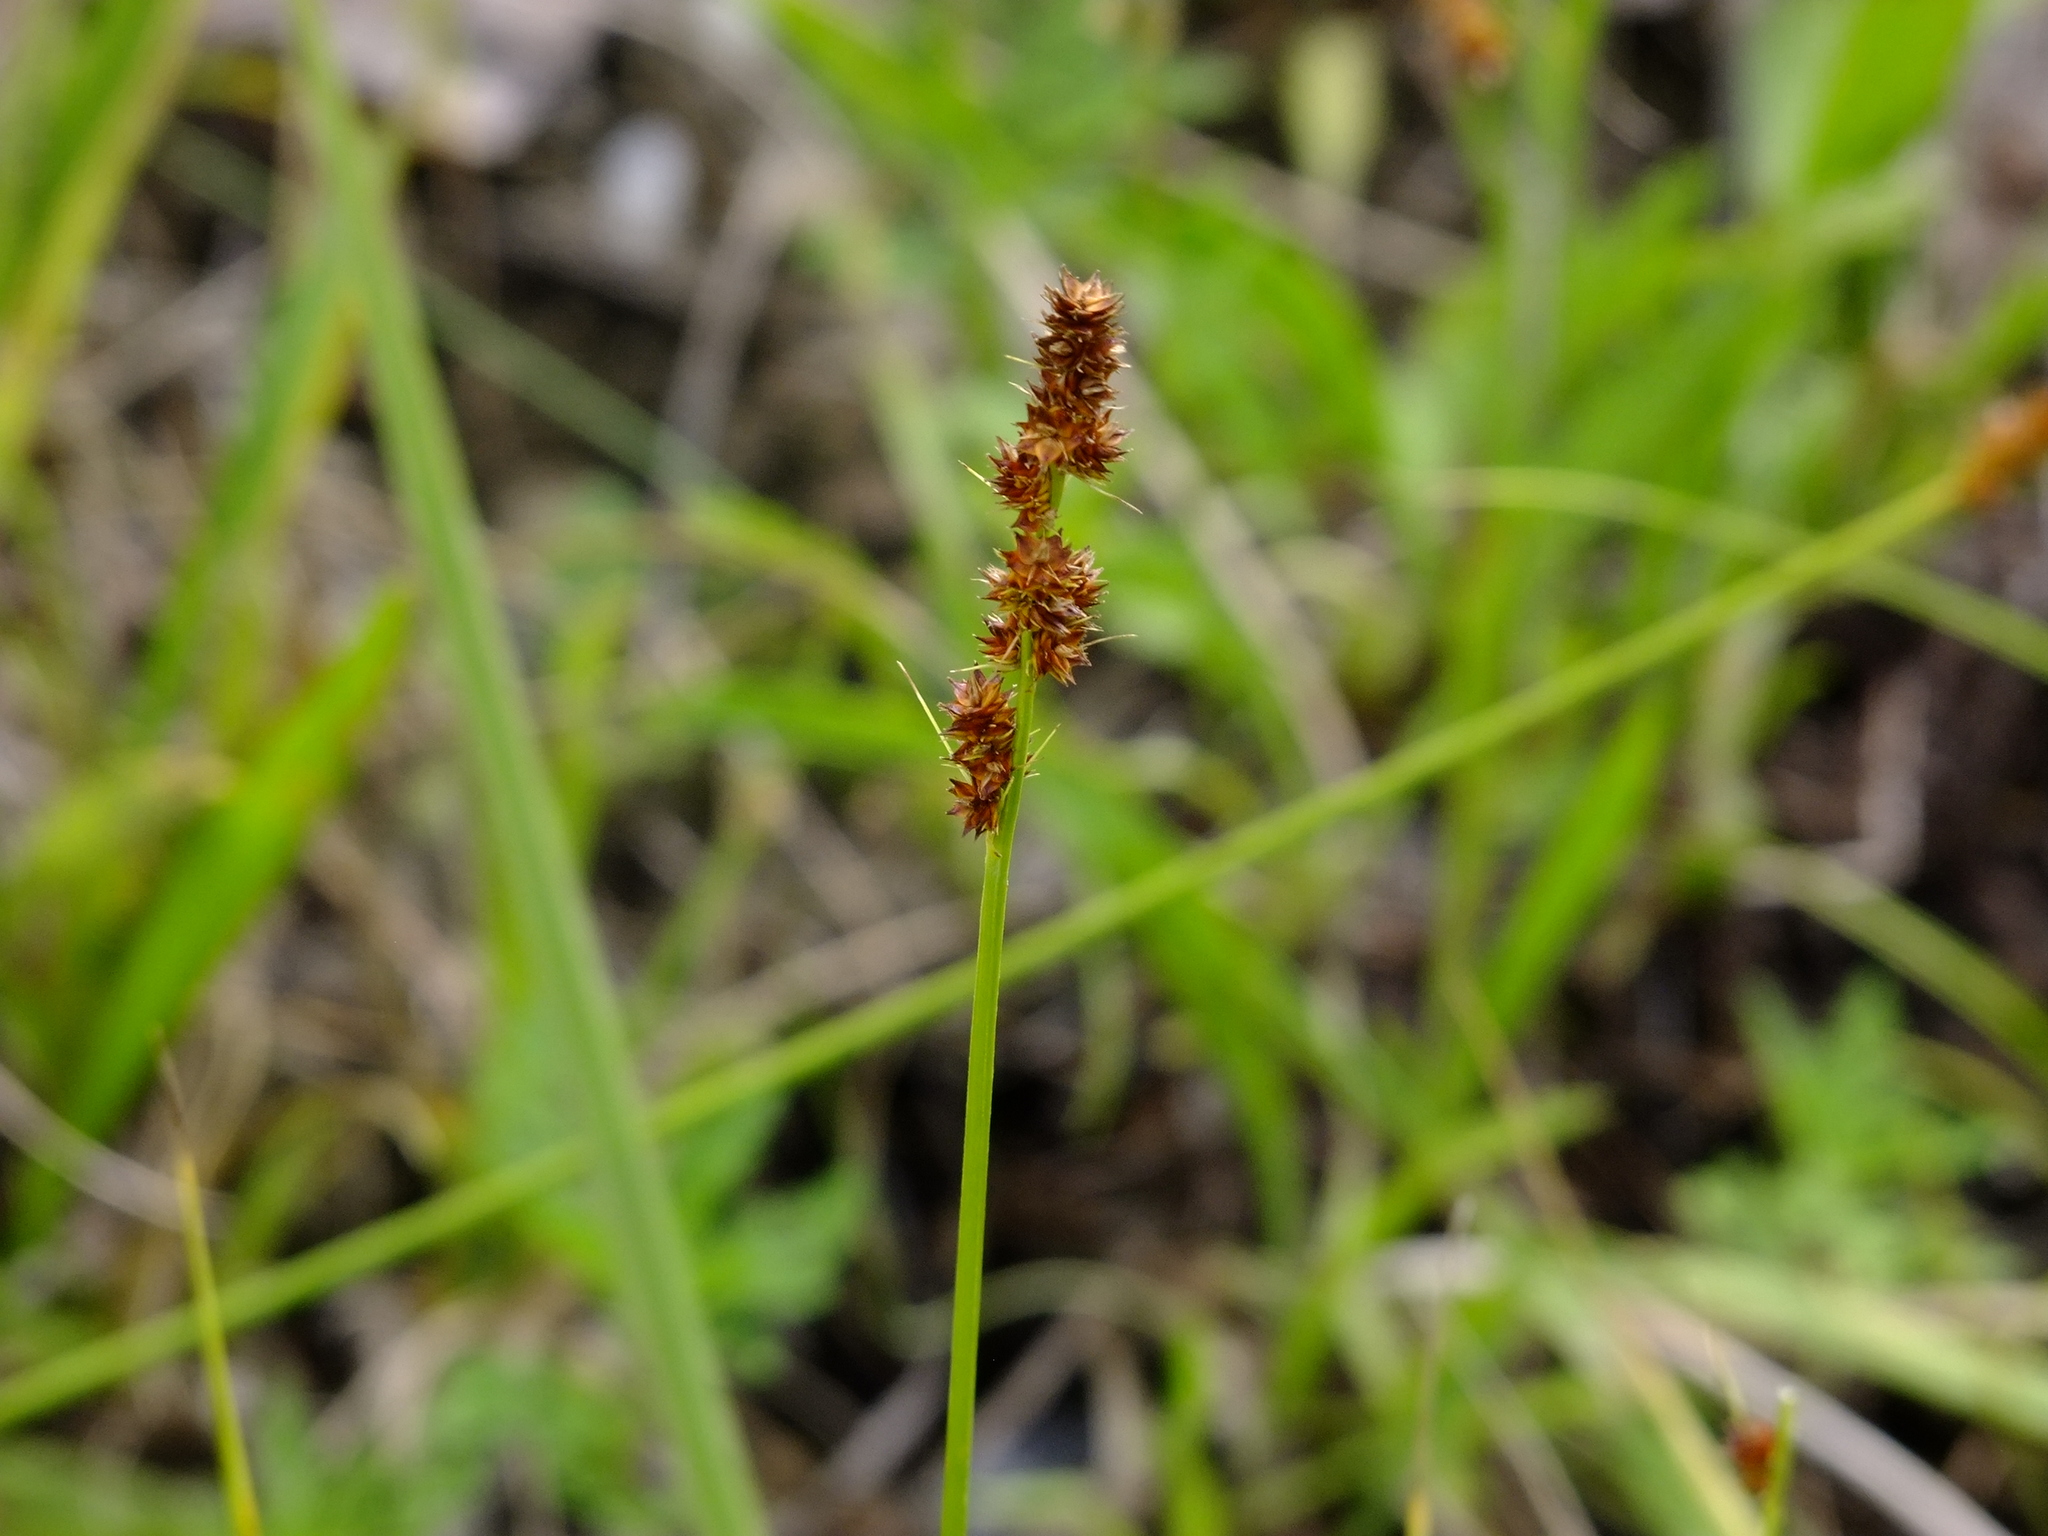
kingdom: Plantae
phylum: Tracheophyta
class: Liliopsida
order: Poales
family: Cyperaceae
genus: Carex
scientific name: Carex annectens
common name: Large fox sedge
